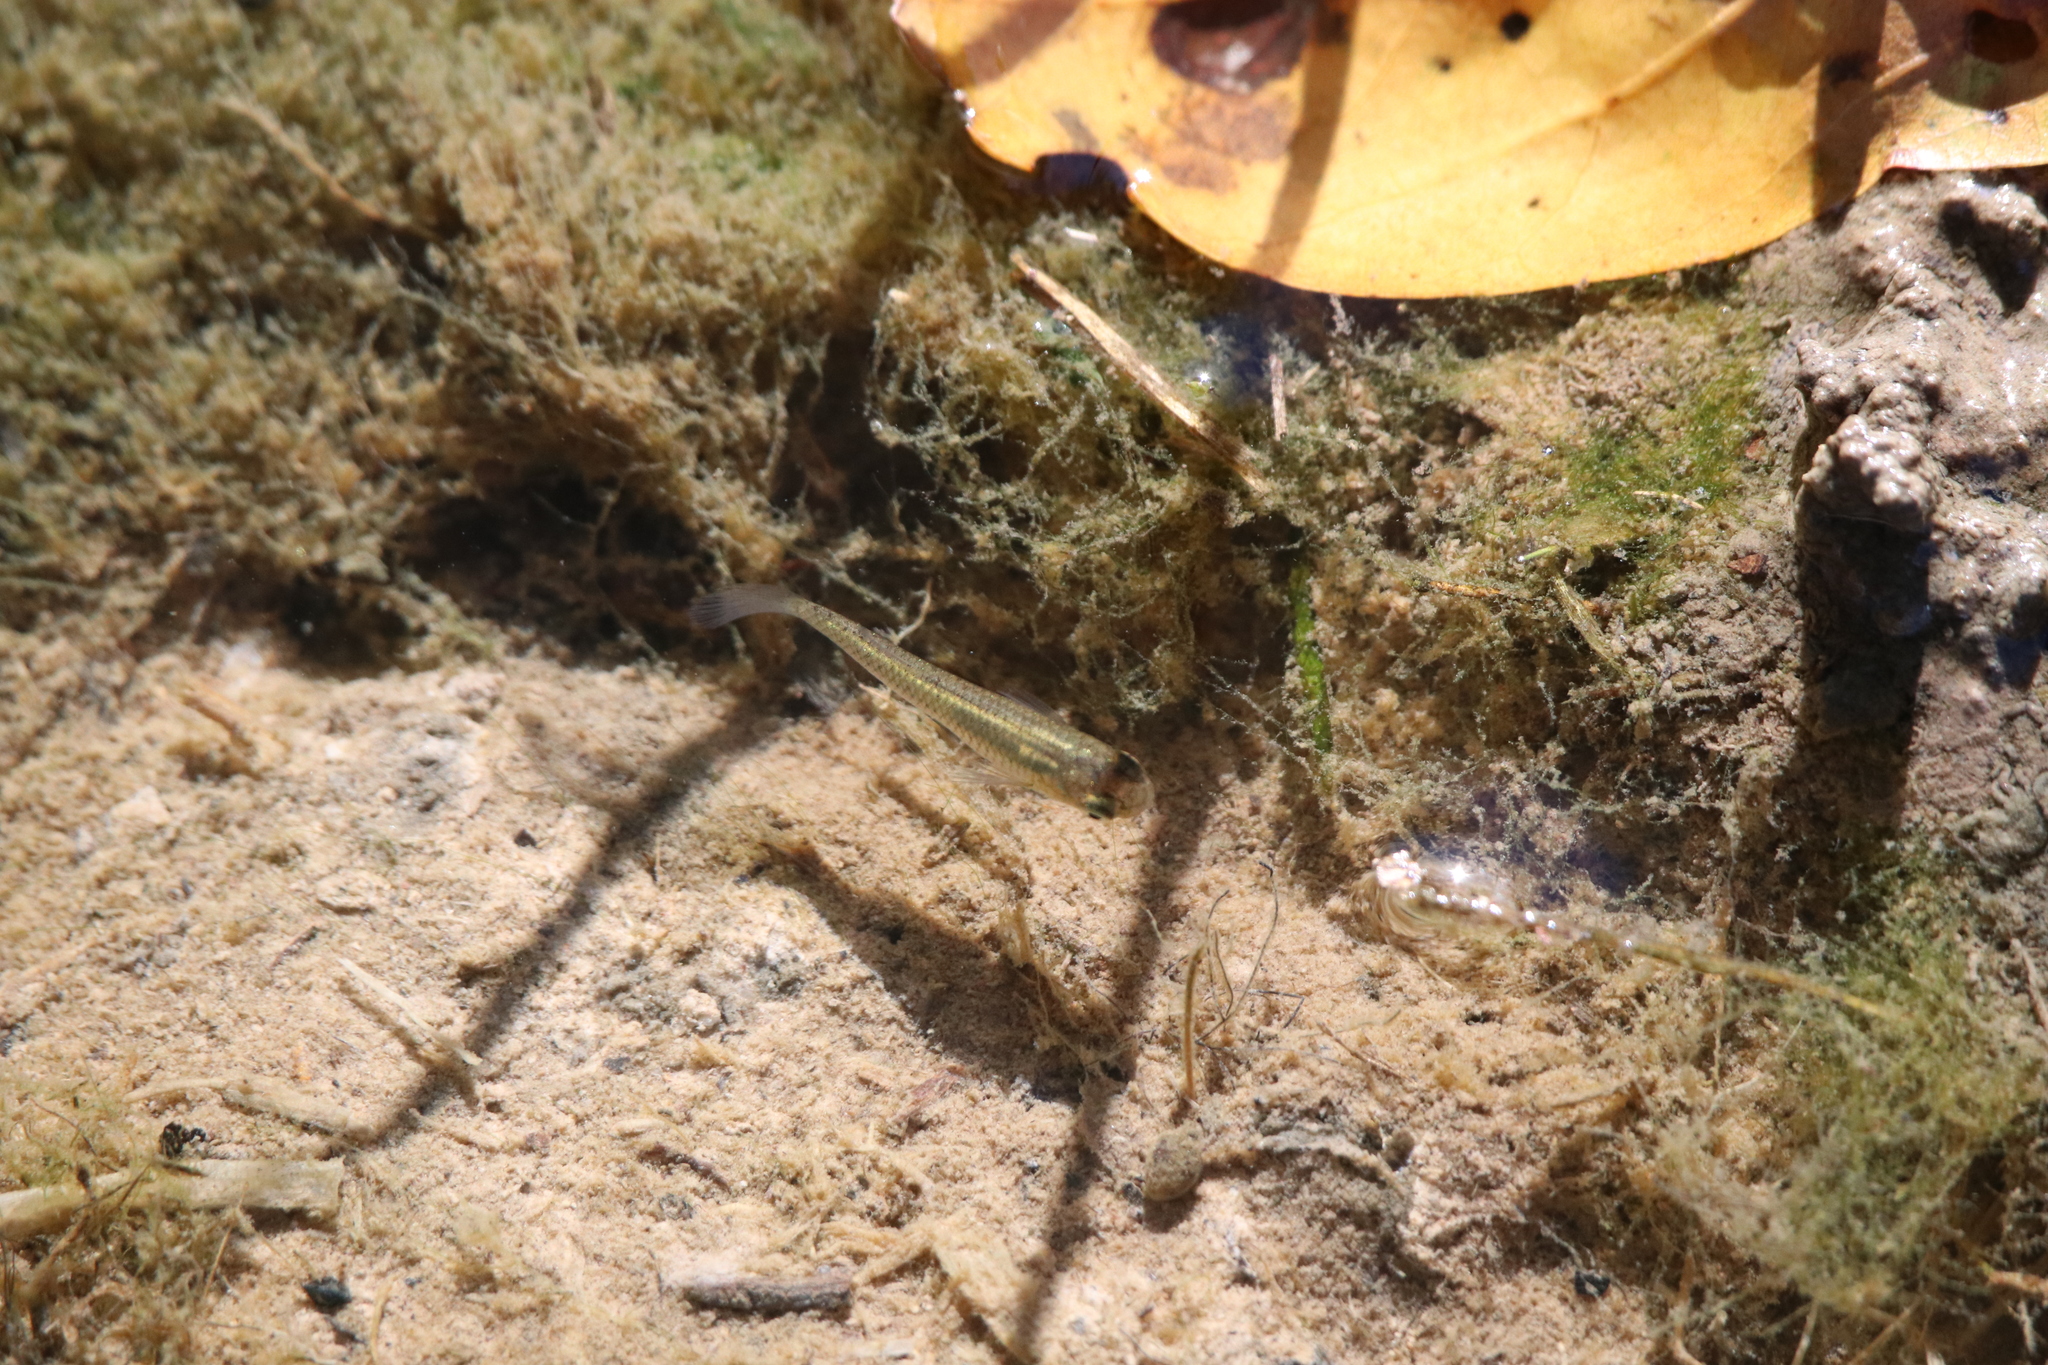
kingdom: Animalia
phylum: Chordata
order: Cyprinodontiformes
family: Poeciliidae
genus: Gambusia
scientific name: Gambusia affinis
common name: Mosquitofish
